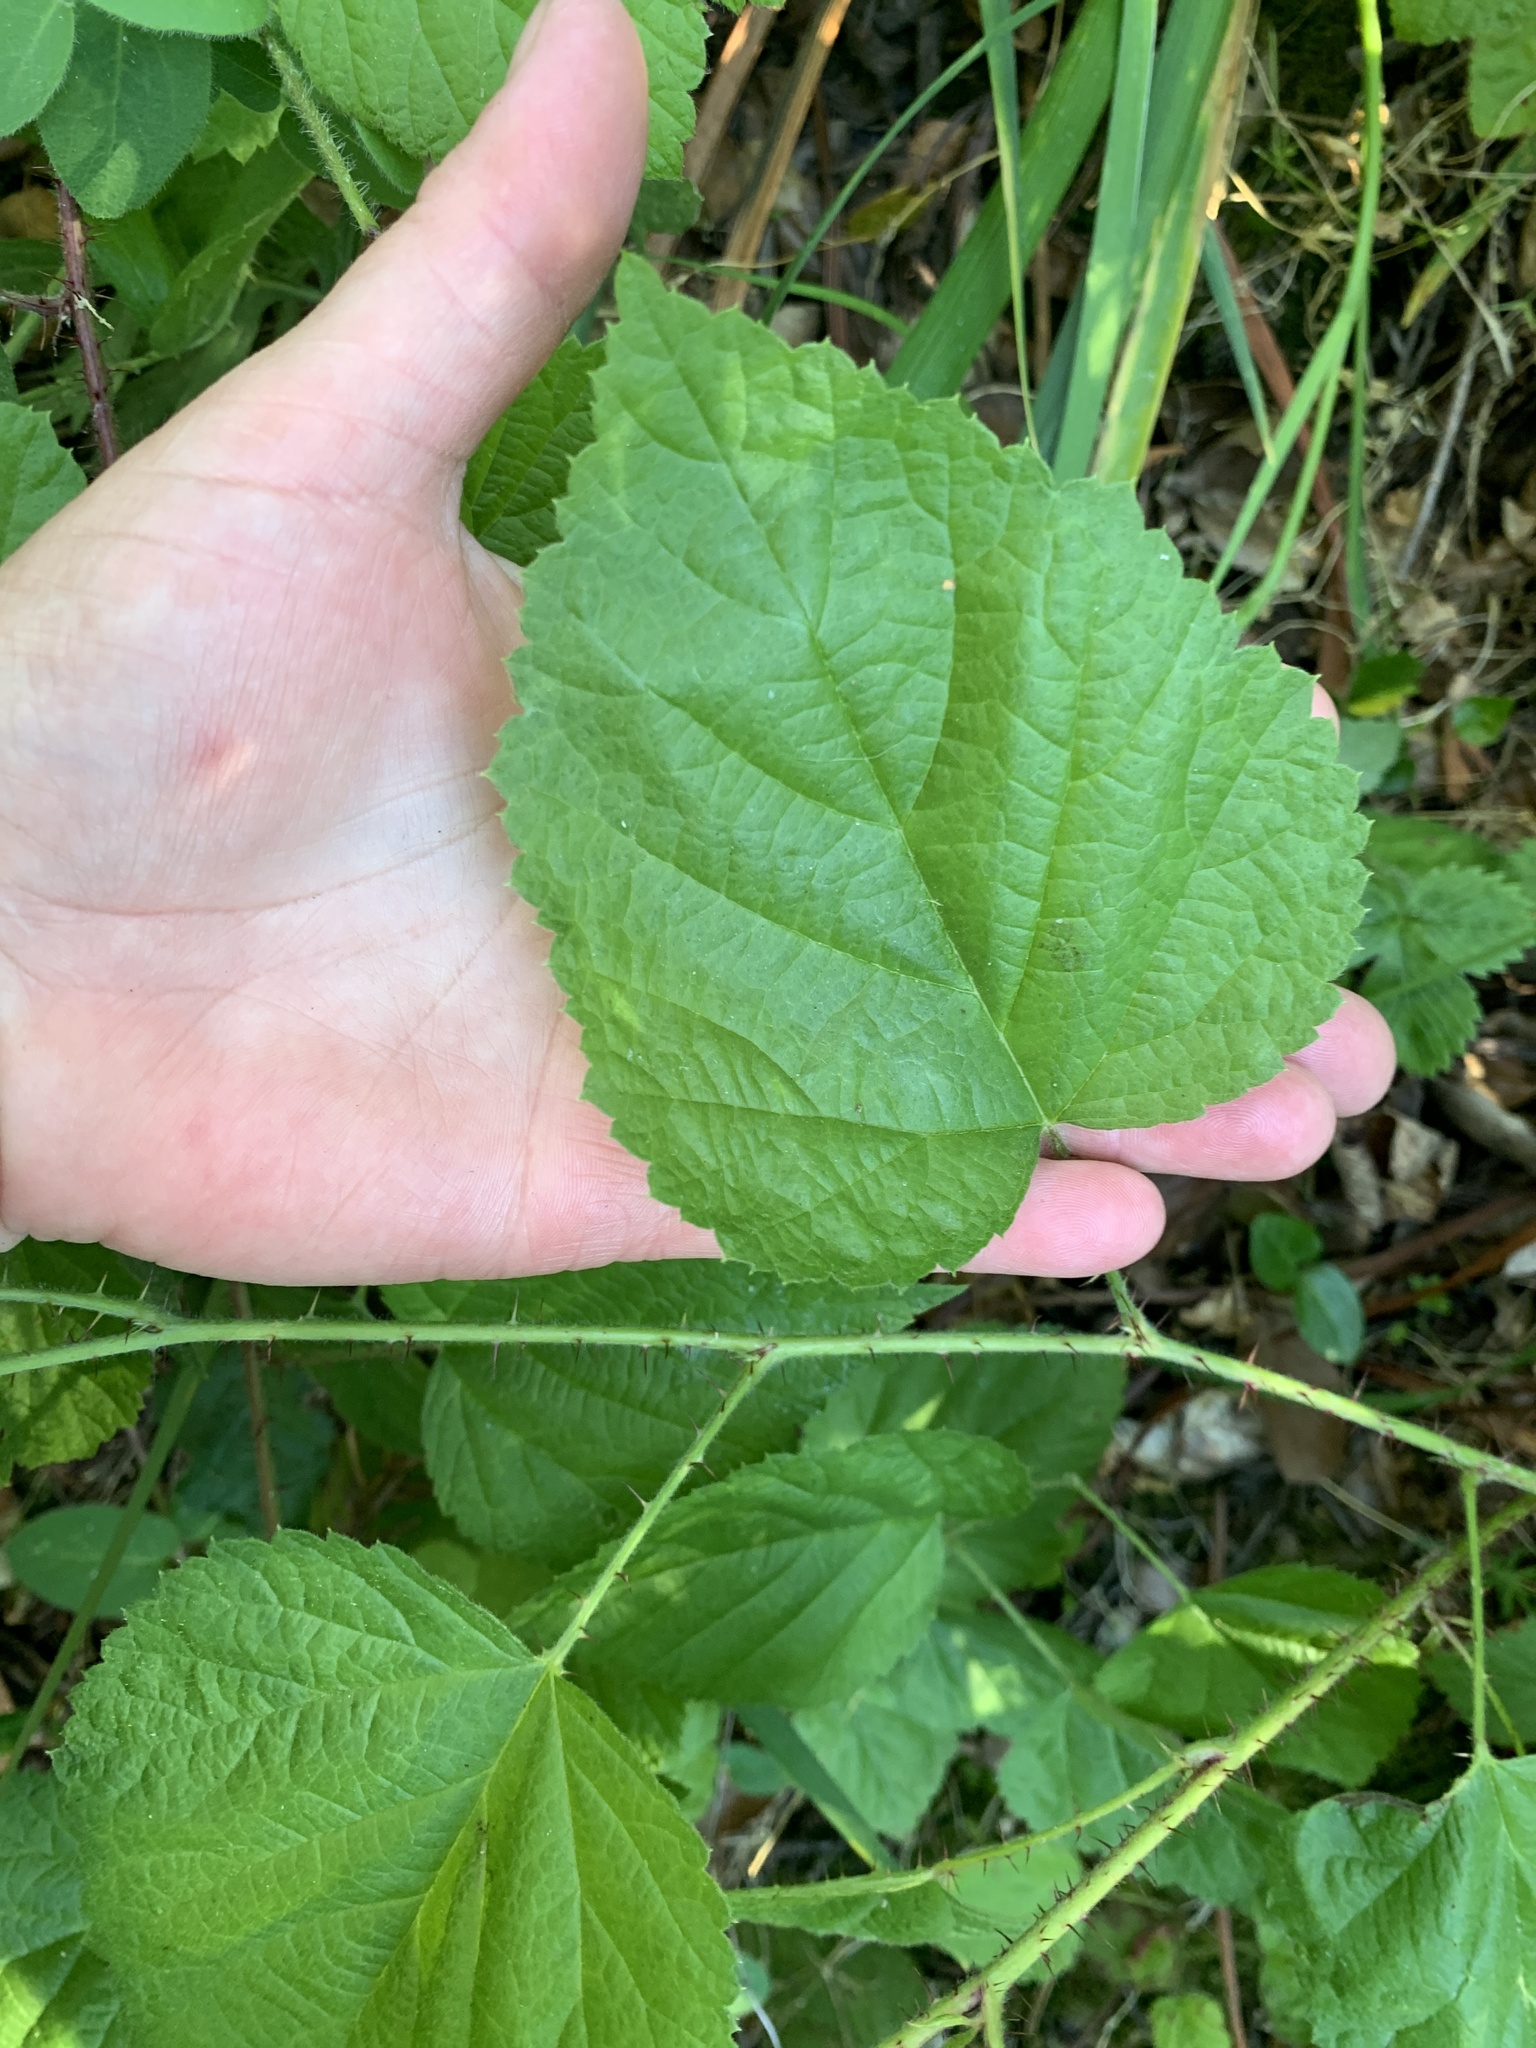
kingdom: Plantae
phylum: Tracheophyta
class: Magnoliopsida
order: Rosales
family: Rosaceae
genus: Rubus
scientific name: Rubus ursinus
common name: Pacific blackberry
